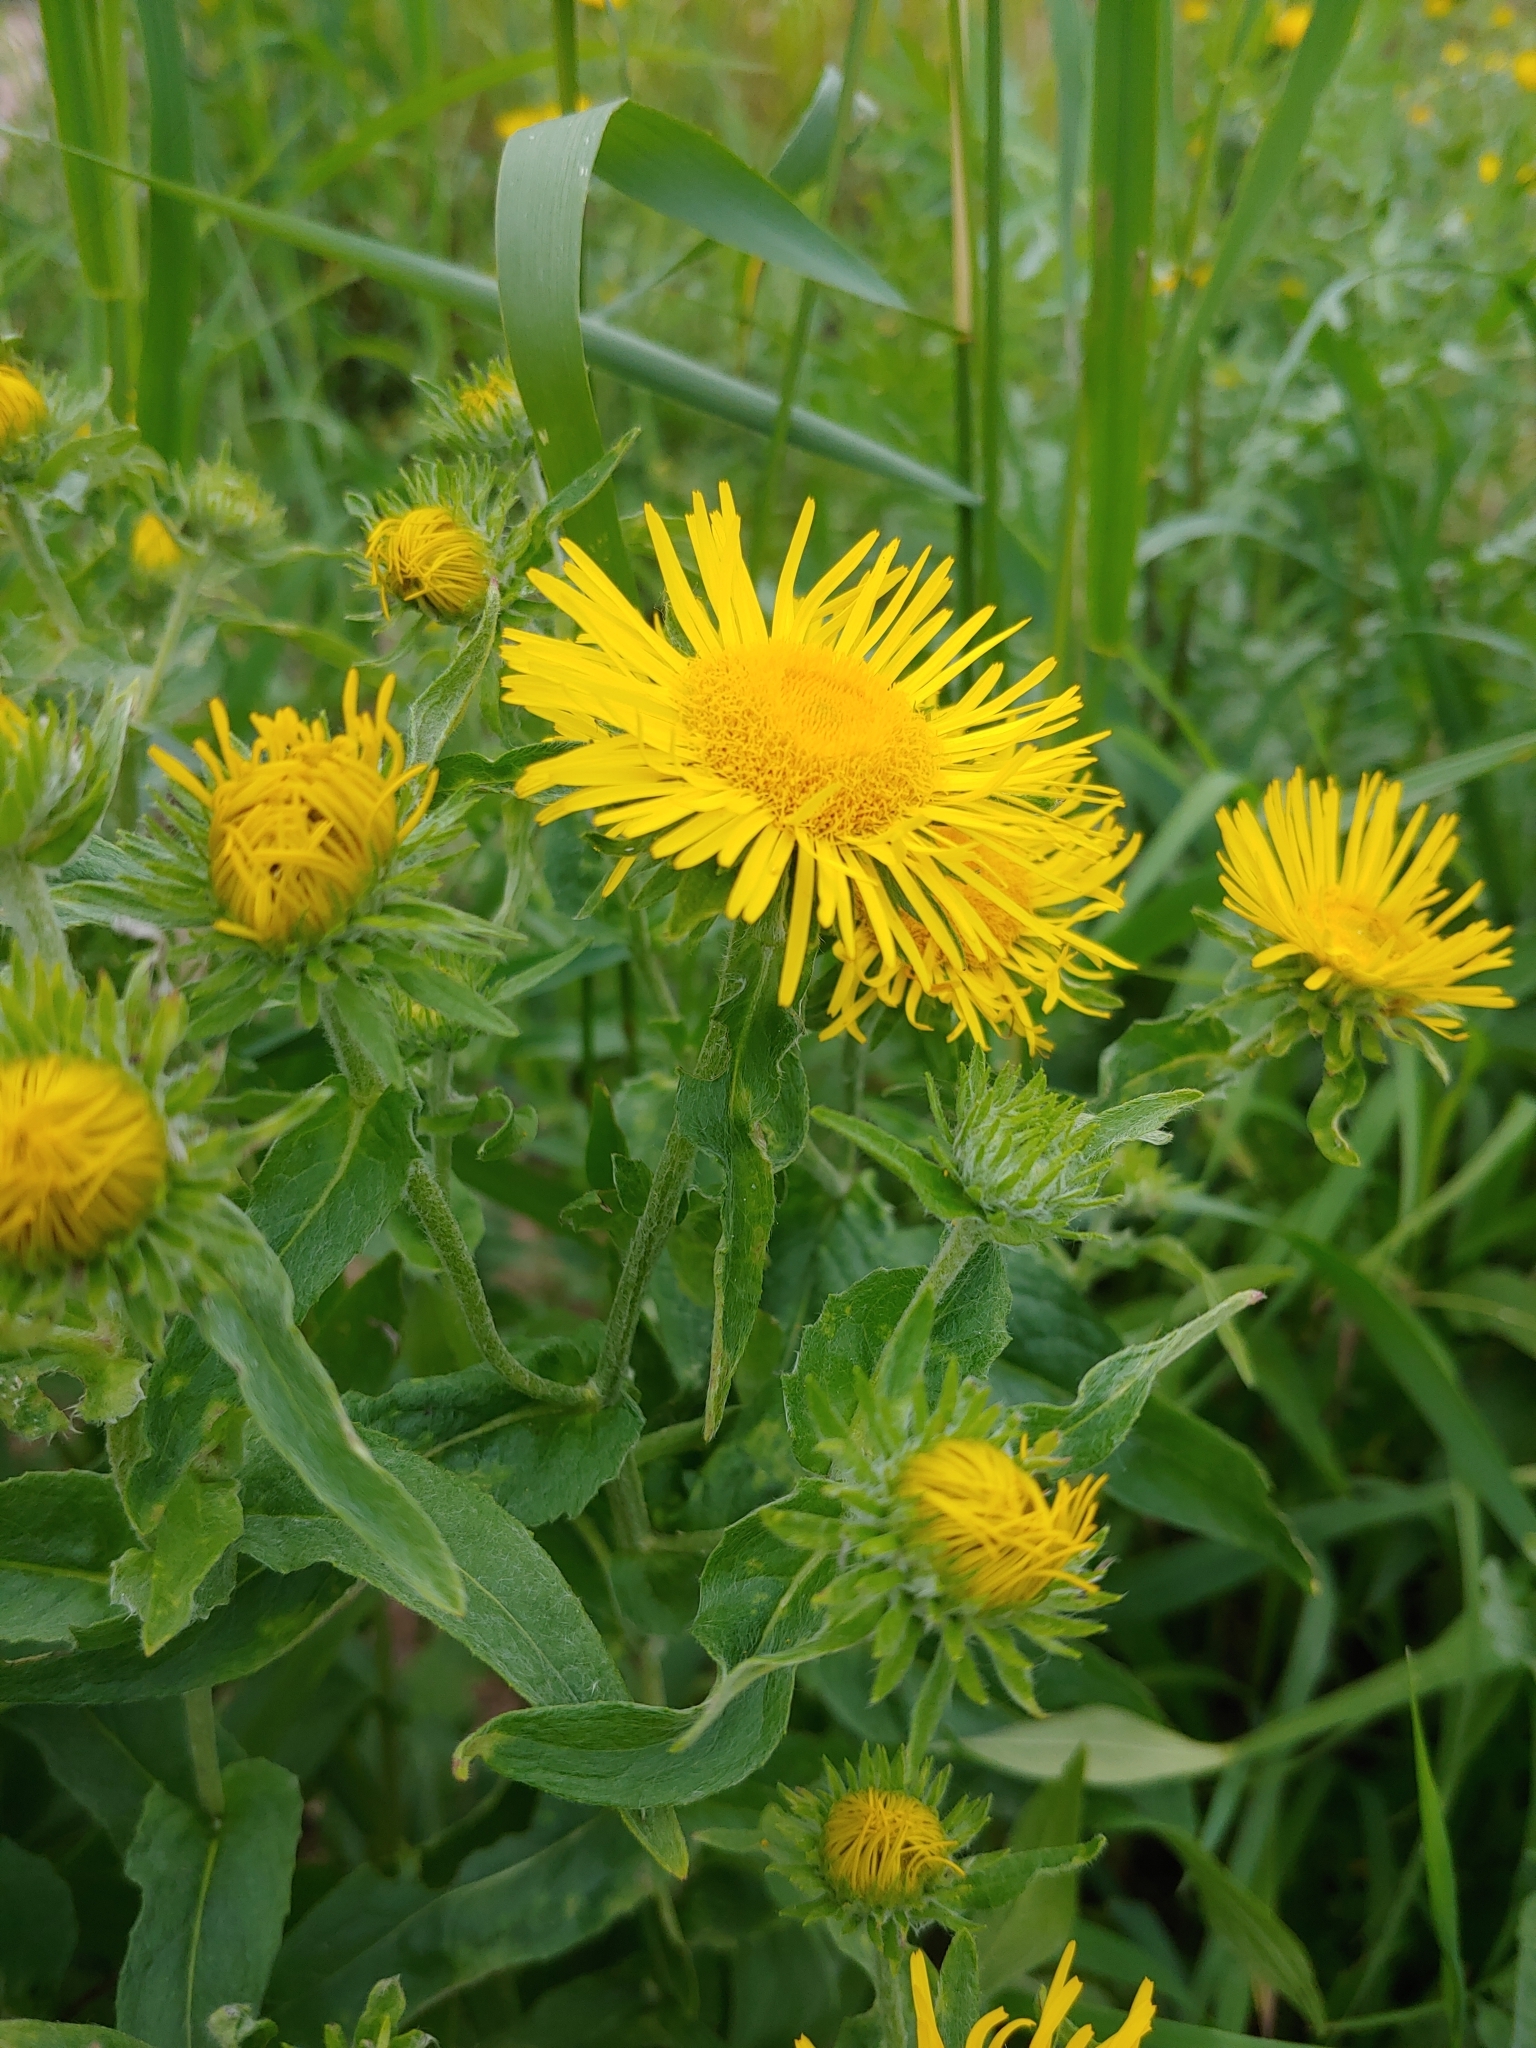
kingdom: Plantae
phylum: Tracheophyta
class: Magnoliopsida
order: Asterales
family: Asteraceae
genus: Pentanema
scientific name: Pentanema britannicum
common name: British elecampane
